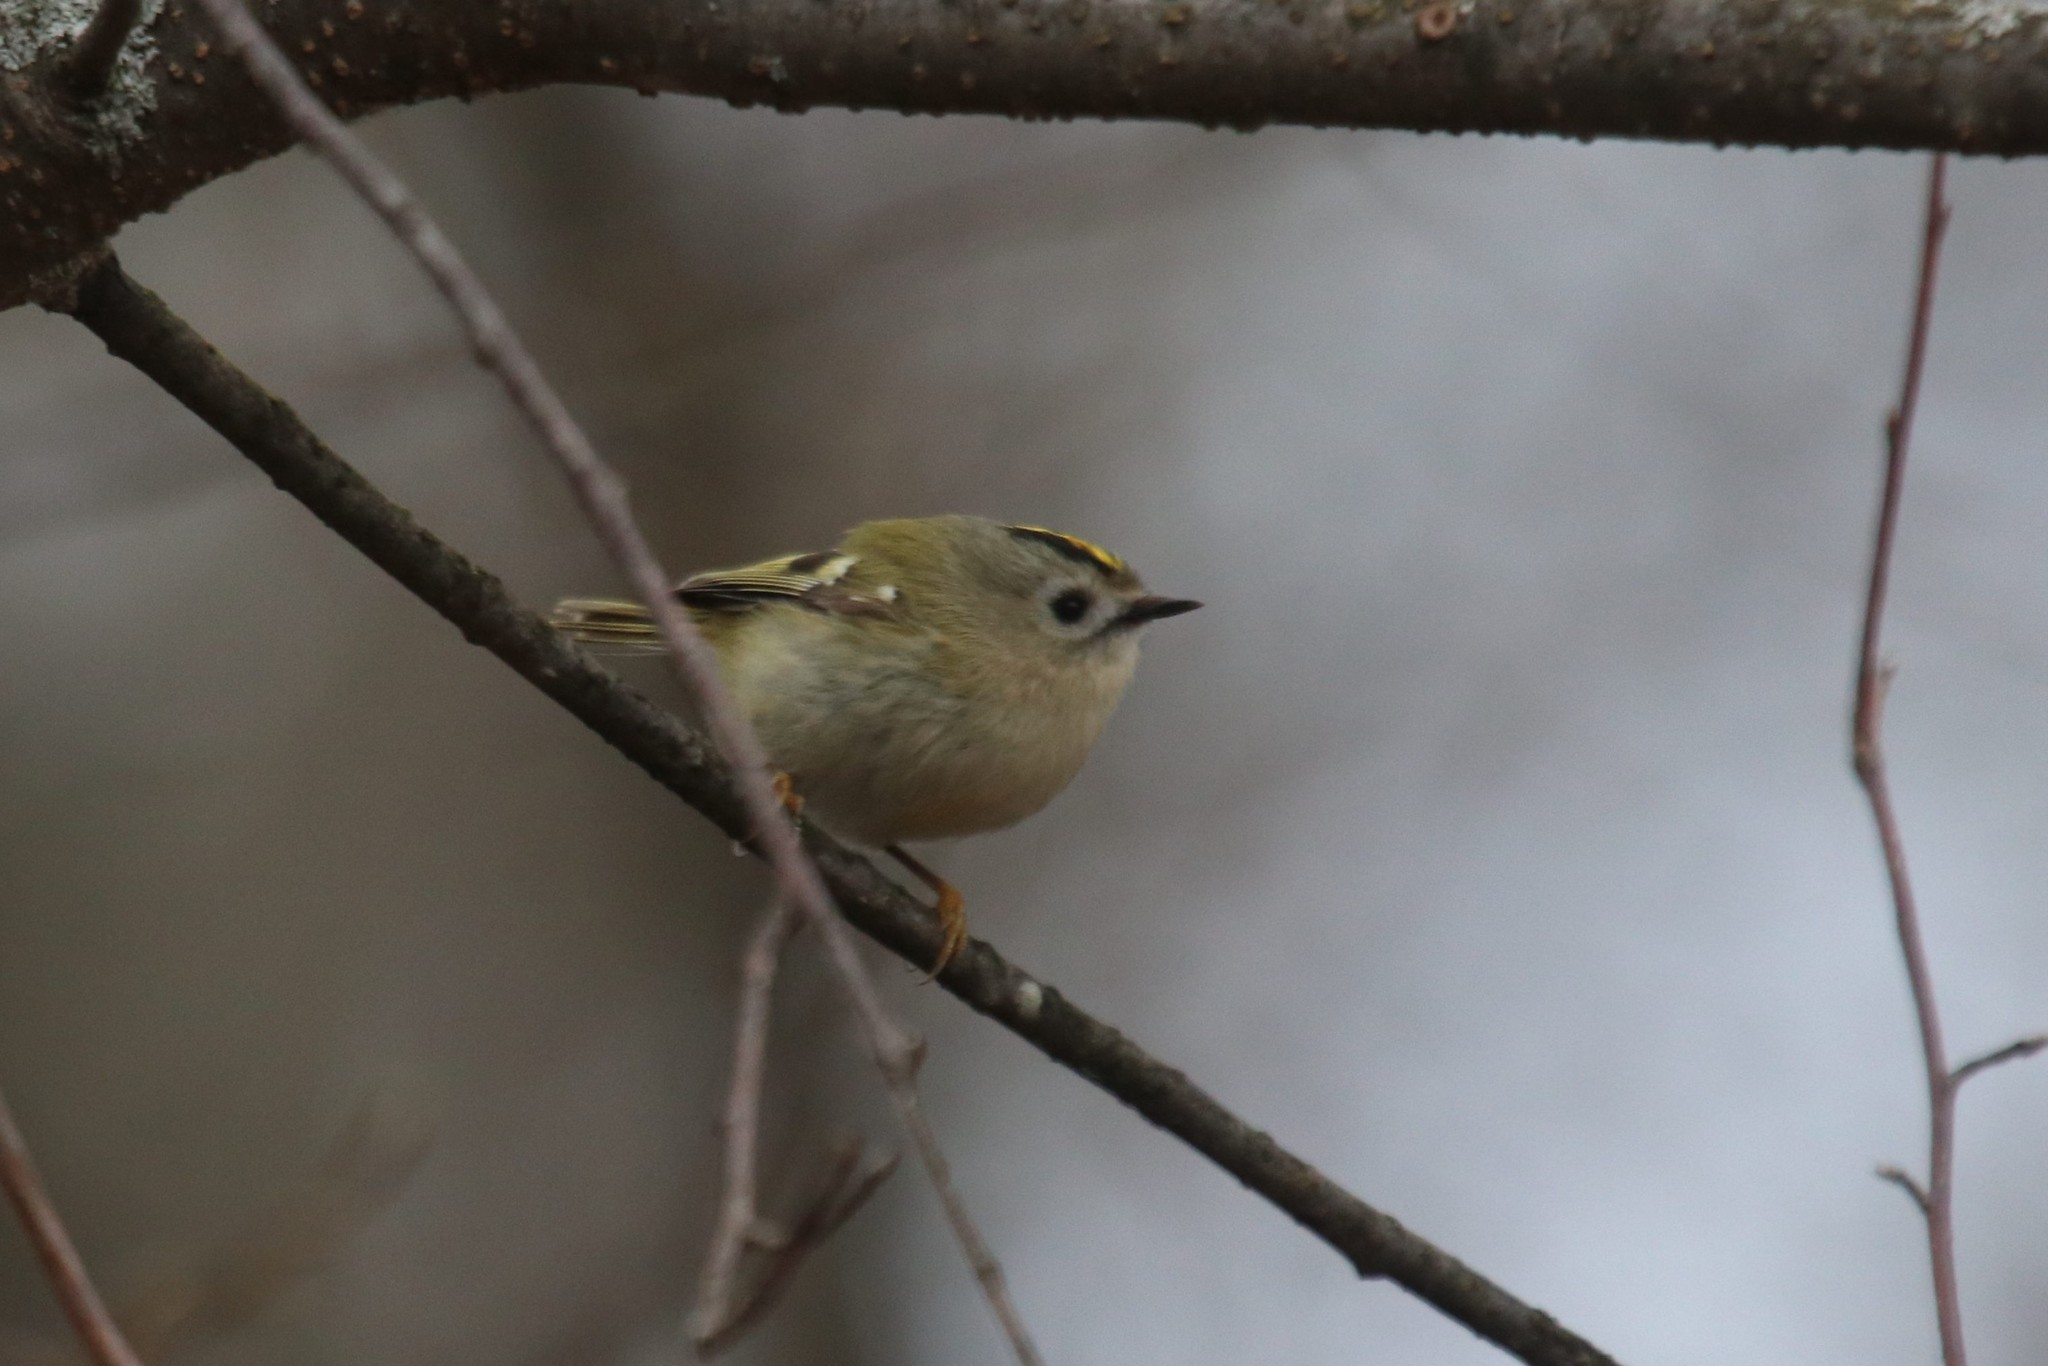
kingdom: Animalia
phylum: Chordata
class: Aves
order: Passeriformes
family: Regulidae
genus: Regulus
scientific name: Regulus regulus
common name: Goldcrest
